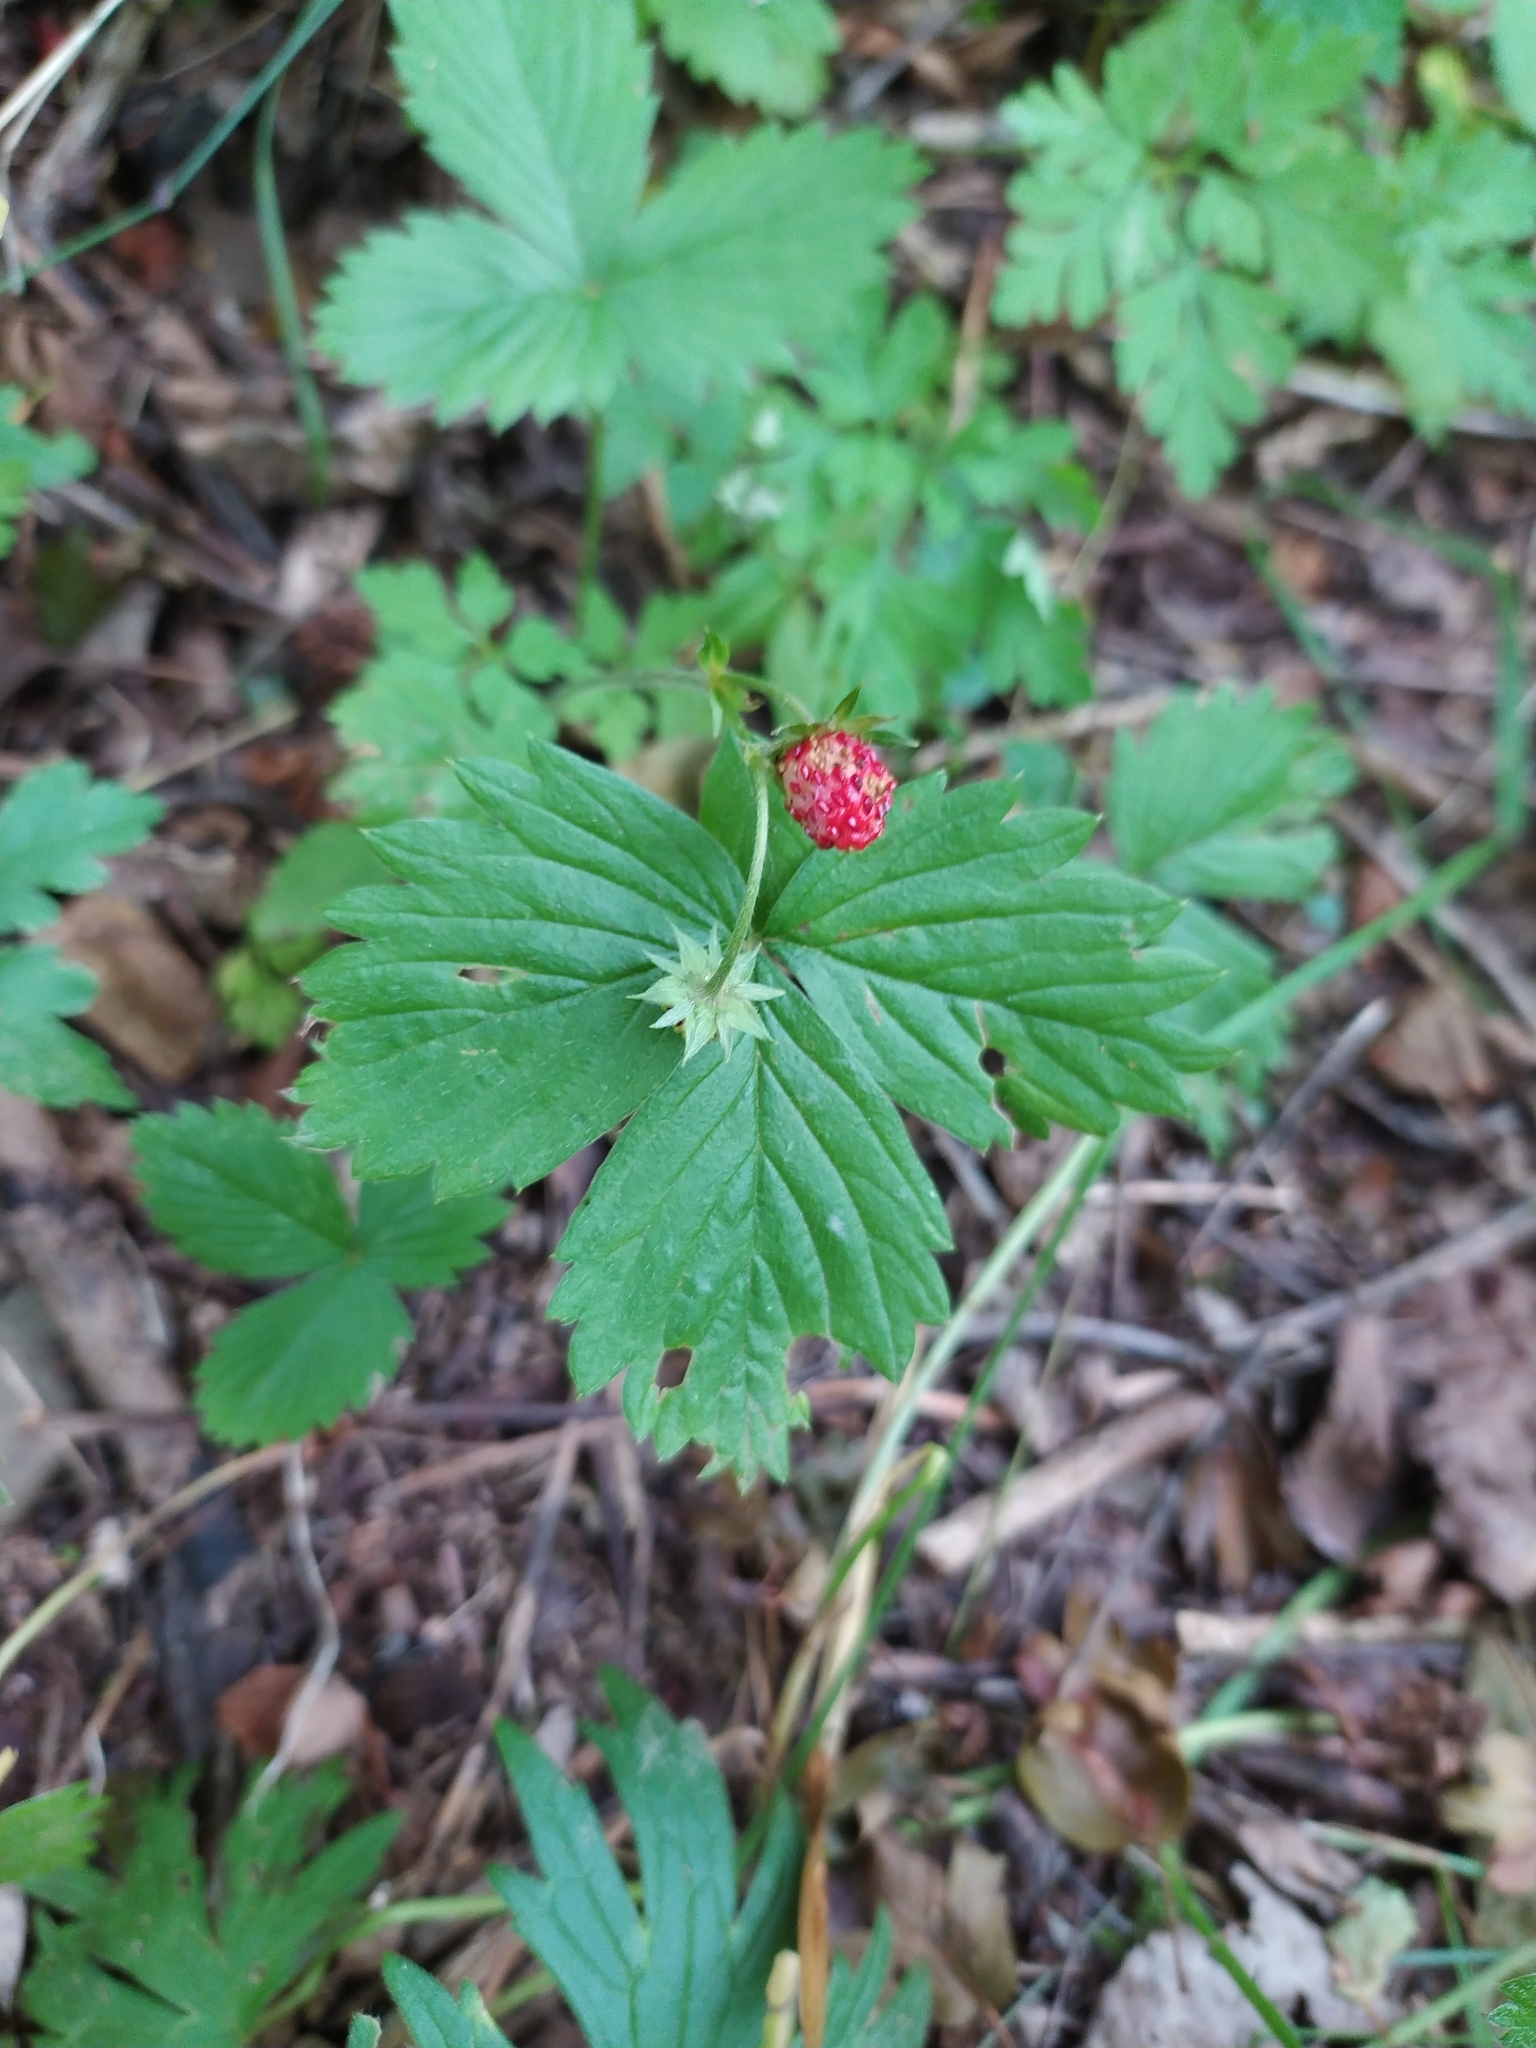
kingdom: Plantae
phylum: Tracheophyta
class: Magnoliopsida
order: Rosales
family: Rosaceae
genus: Fragaria
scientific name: Fragaria vesca
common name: Wild strawberry
